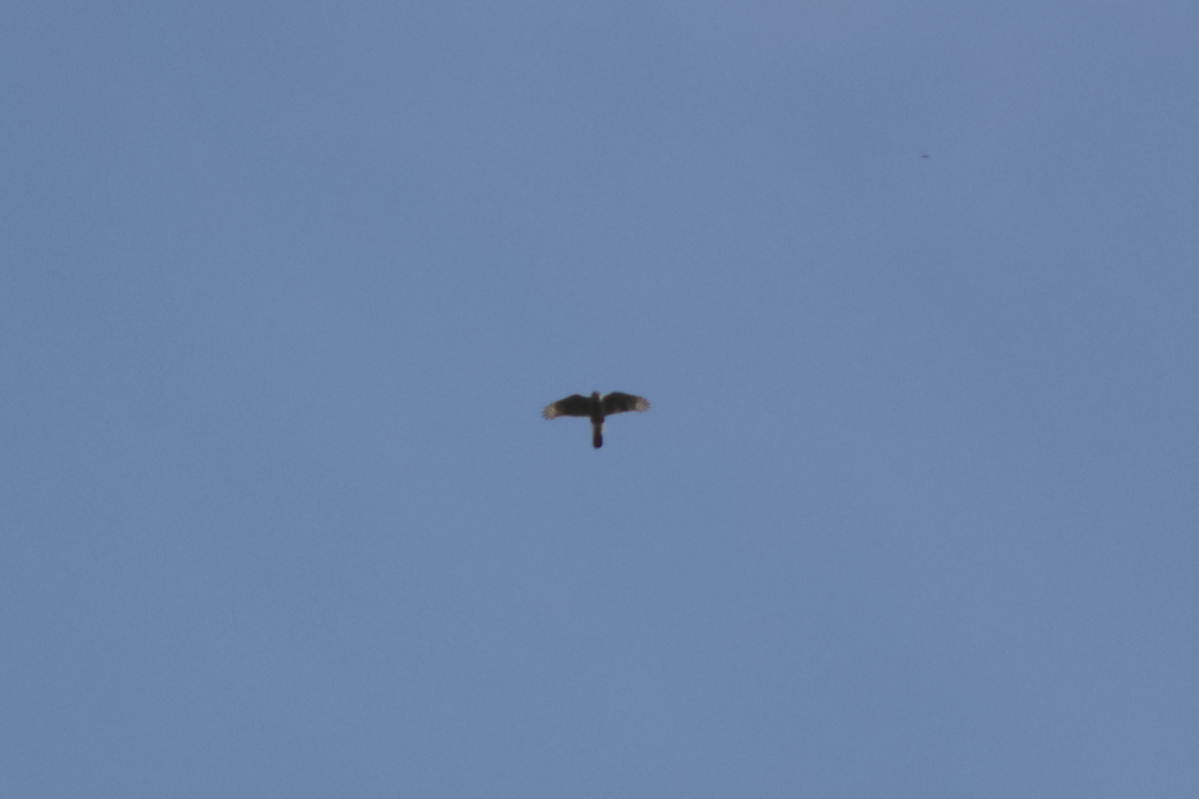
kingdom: Animalia
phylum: Chordata
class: Aves
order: Accipitriformes
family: Accipitridae
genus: Accipiter
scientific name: Accipiter cooperii
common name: Cooper's hawk
